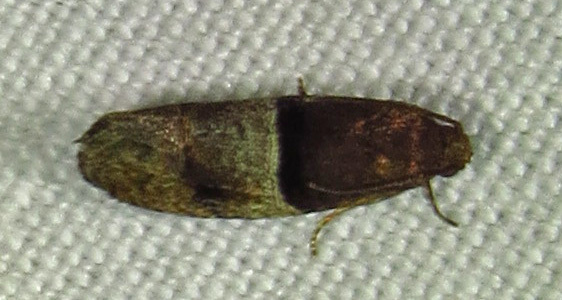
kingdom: Animalia
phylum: Arthropoda
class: Insecta
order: Lepidoptera
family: Tortricidae
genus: Larisa
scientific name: Larisa subsolana
